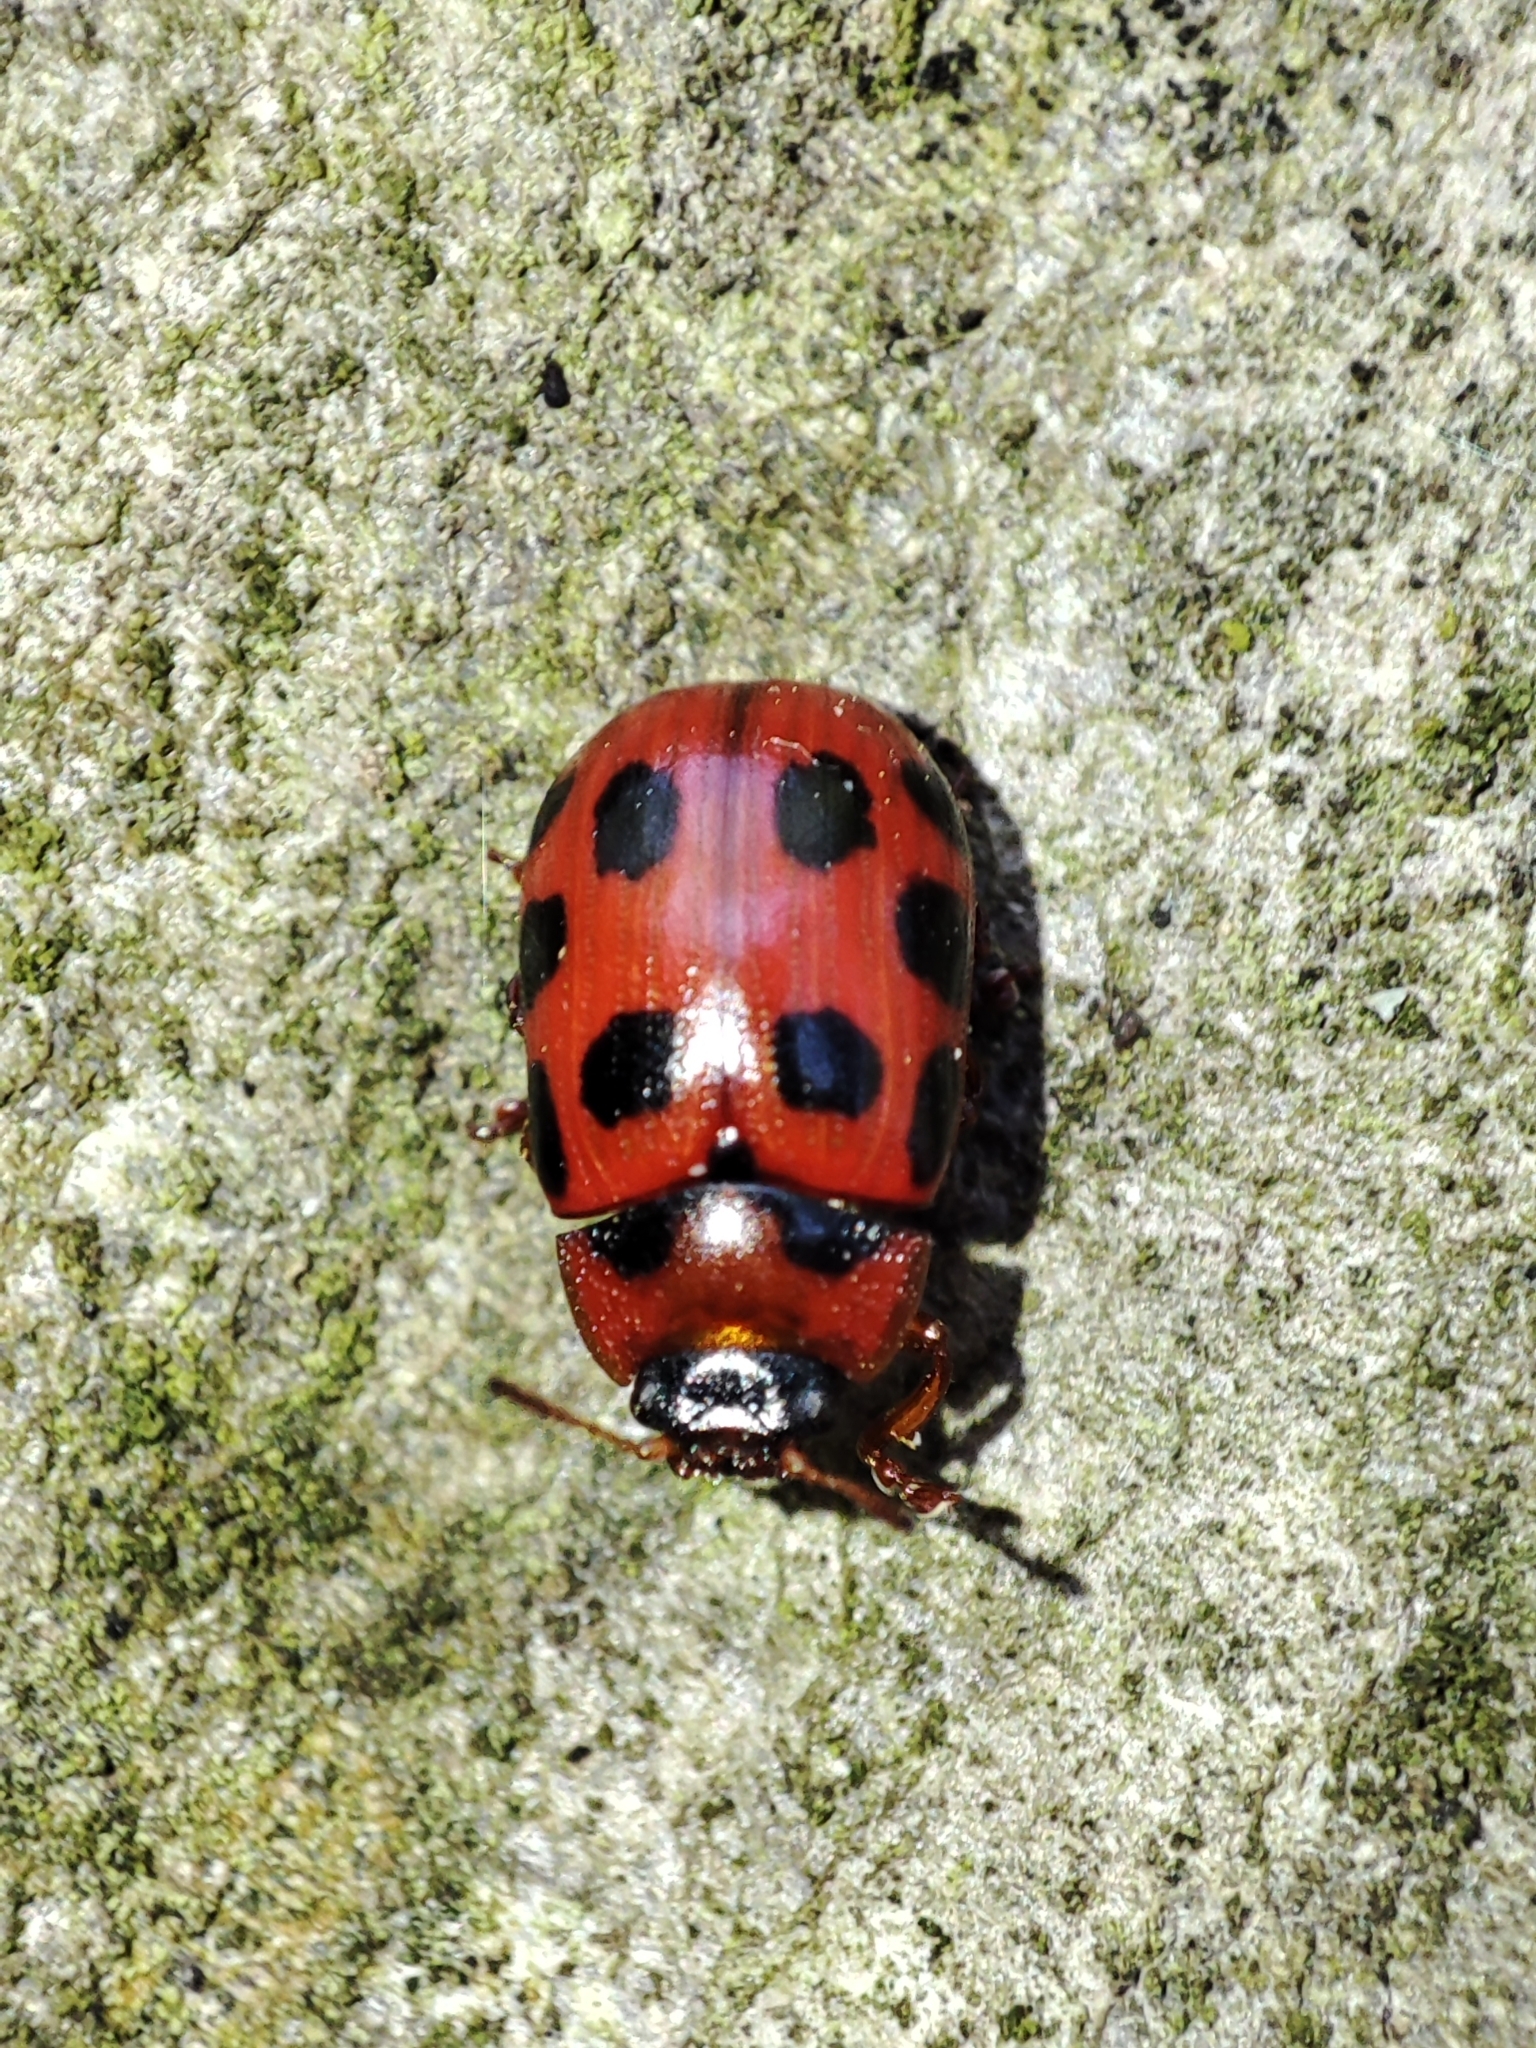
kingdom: Animalia
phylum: Arthropoda
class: Insecta
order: Coleoptera
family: Chrysomelidae
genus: Gonioctena
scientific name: Gonioctena decemnotata
